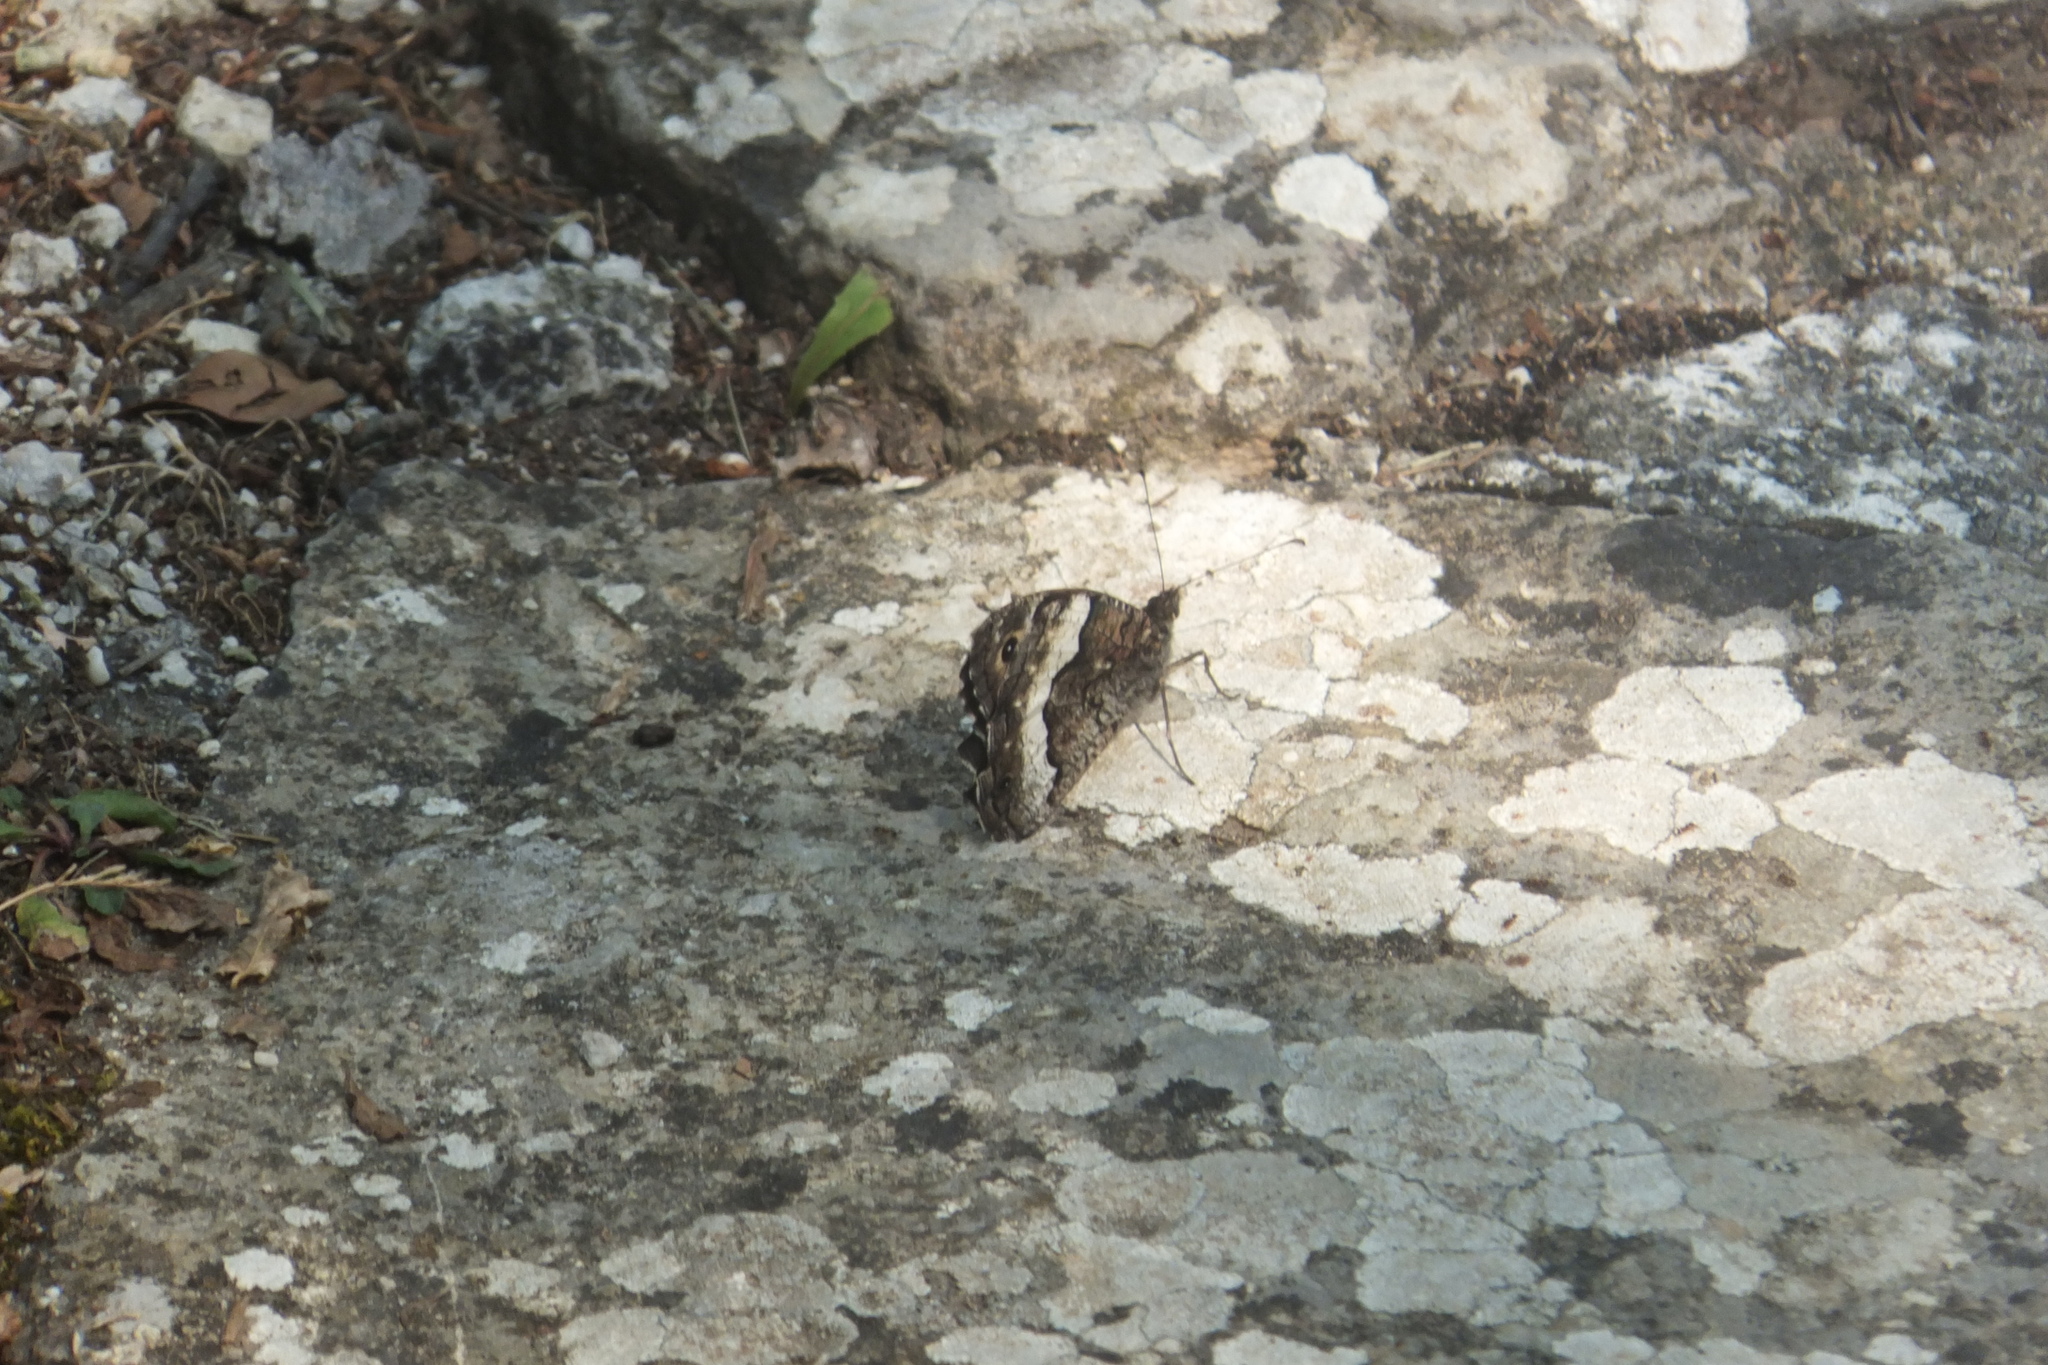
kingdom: Animalia
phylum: Arthropoda
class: Insecta
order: Lepidoptera
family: Nymphalidae
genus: Hipparchia
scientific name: Hipparchia fagi
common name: Woodland grayling
